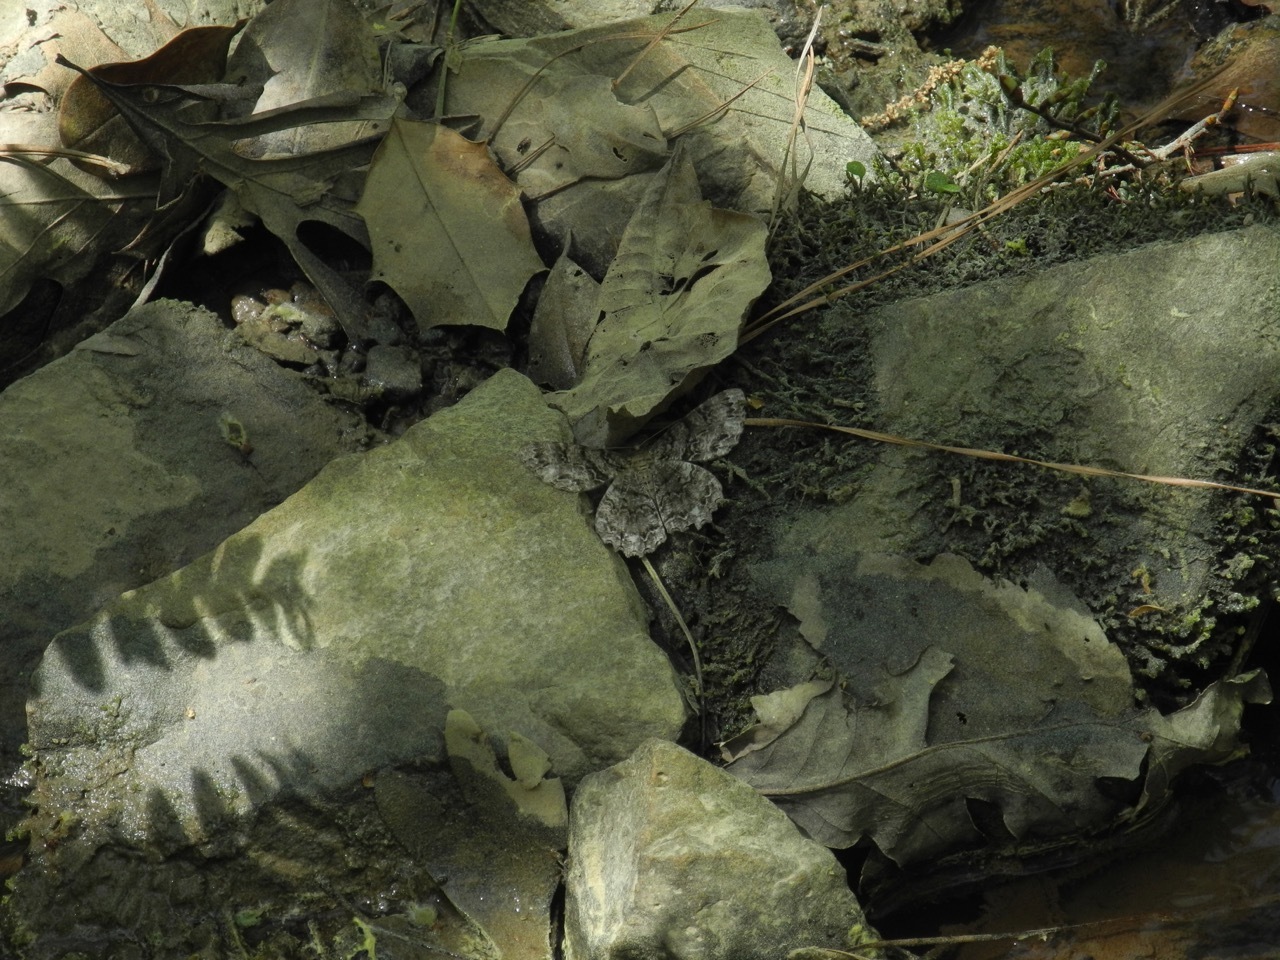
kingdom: Animalia
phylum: Arthropoda
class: Insecta
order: Lepidoptera
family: Geometridae
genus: Epimecis
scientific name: Epimecis hortaria
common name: Tulip-tree beauty
